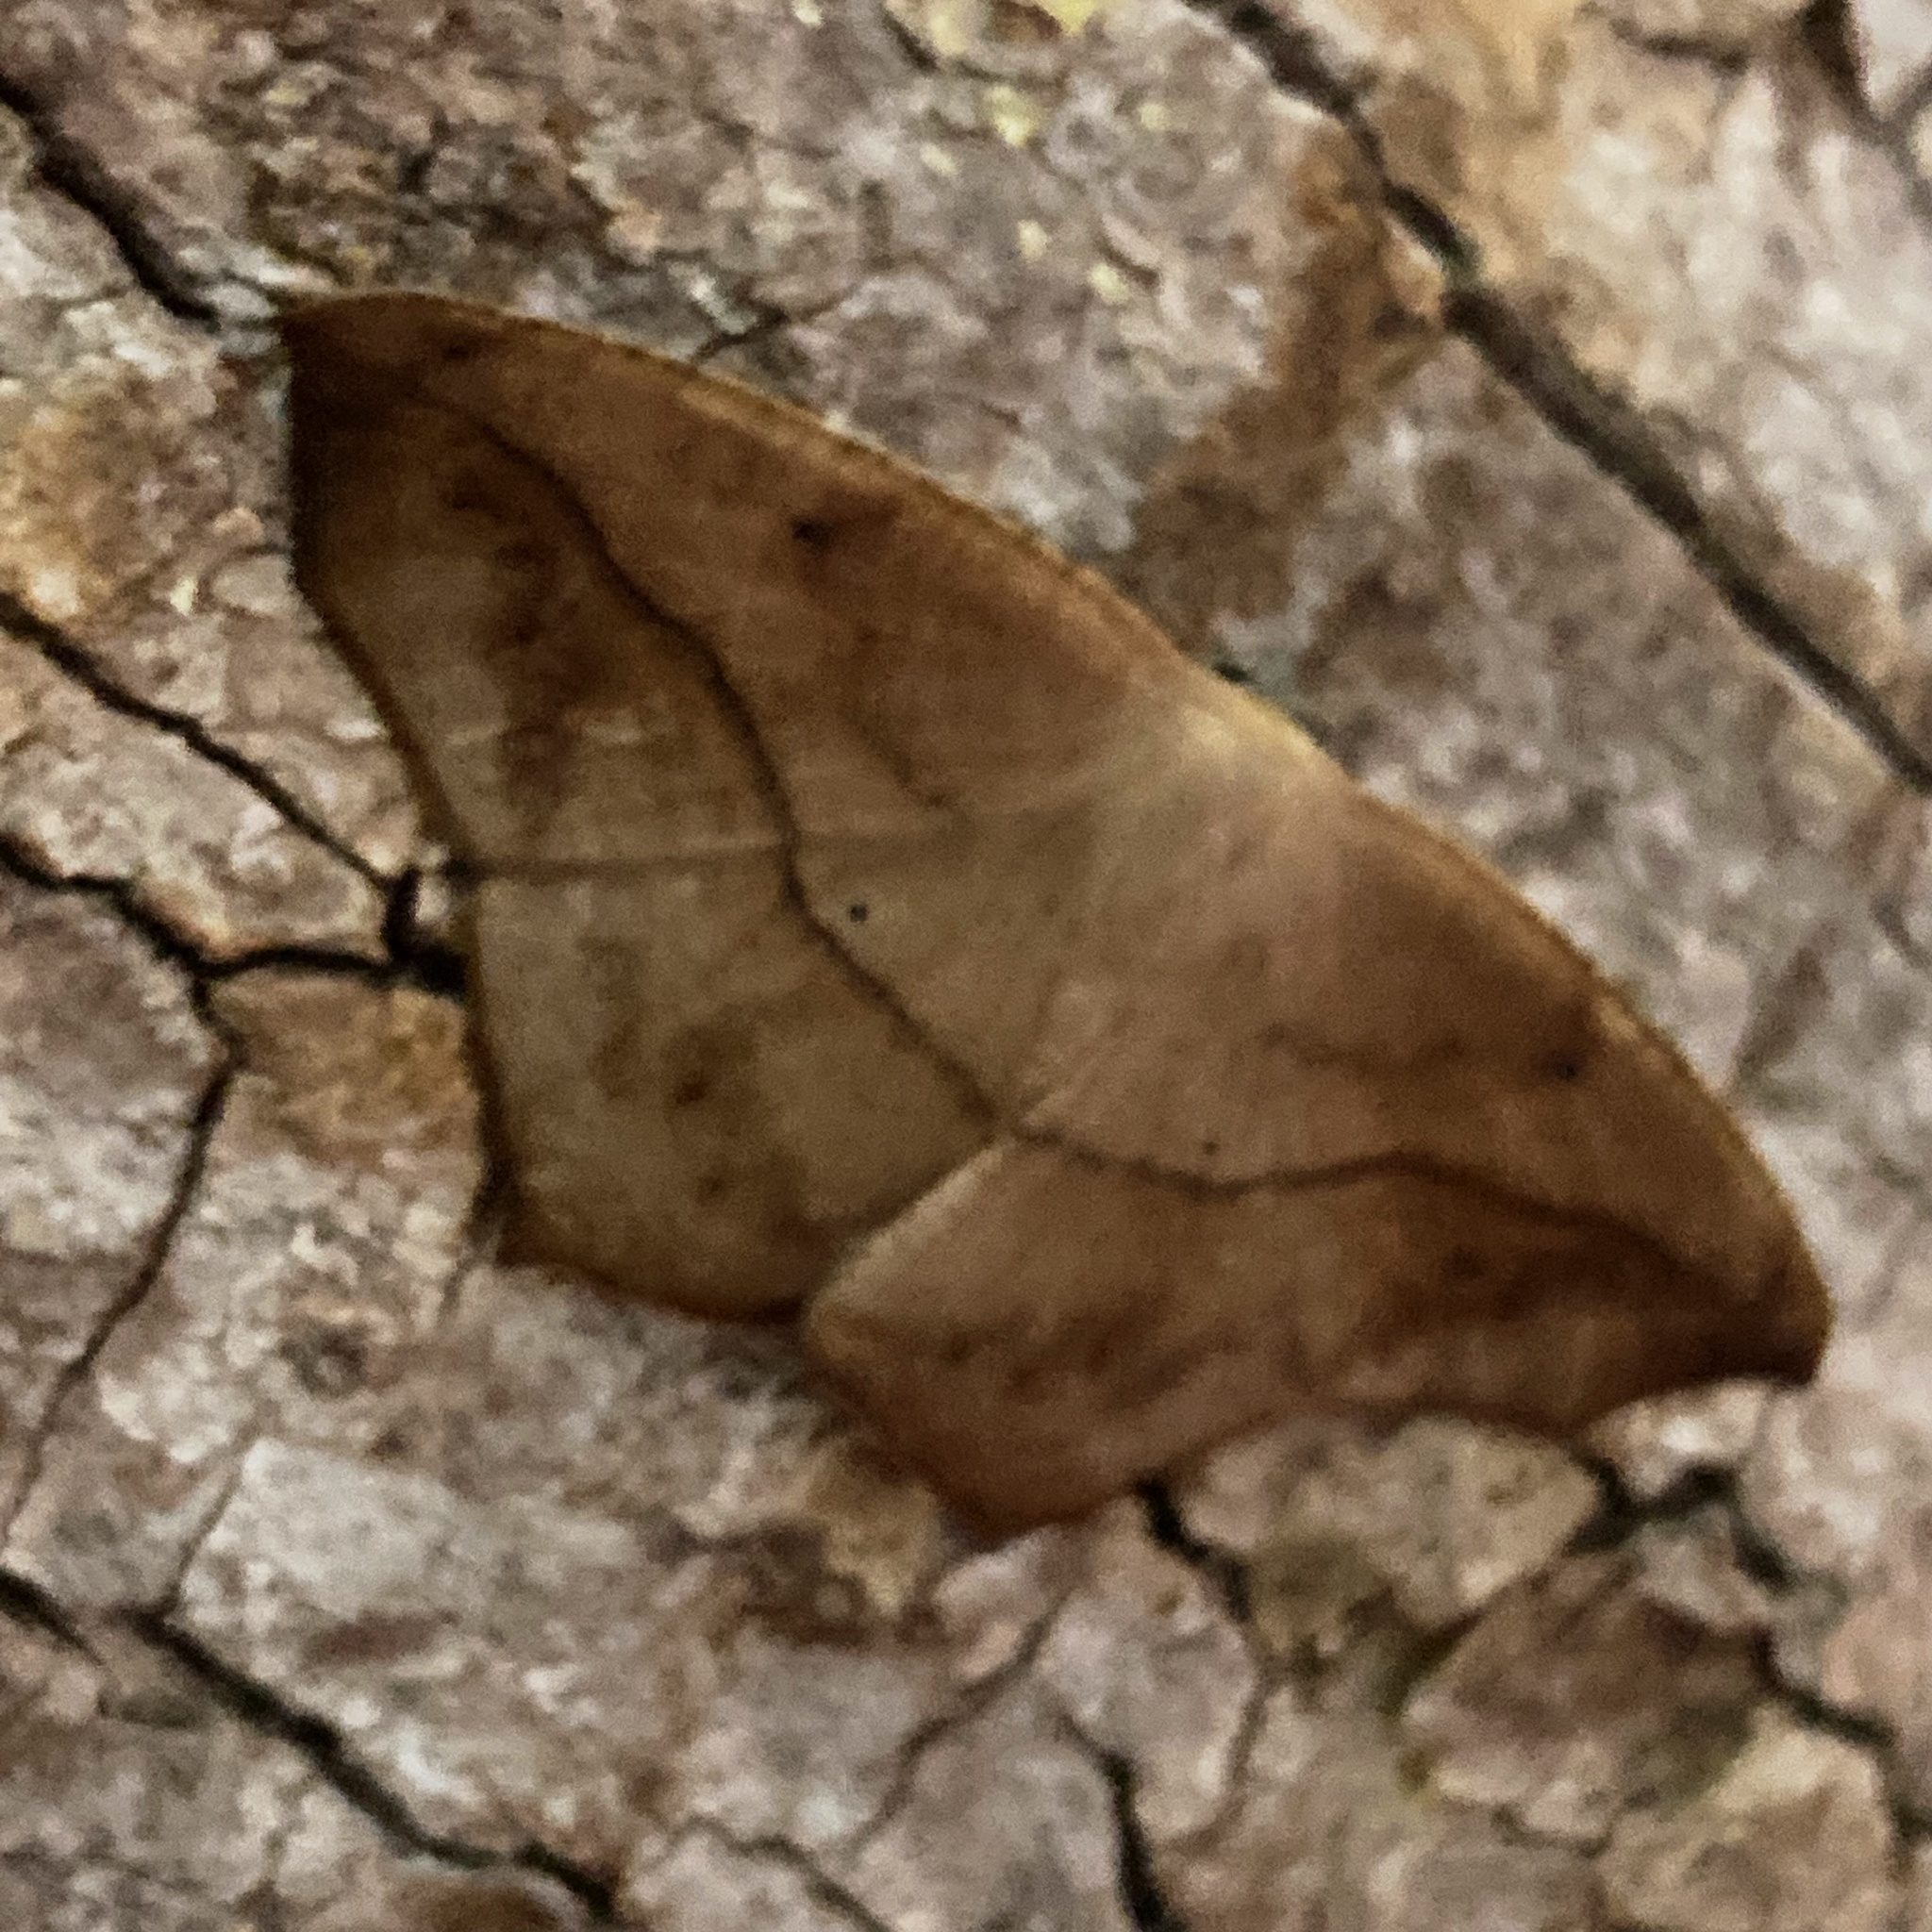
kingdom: Animalia
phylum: Arthropoda
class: Insecta
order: Lepidoptera
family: Geometridae
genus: Prochoerodes
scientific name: Prochoerodes lineola
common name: Large maple spanworm
